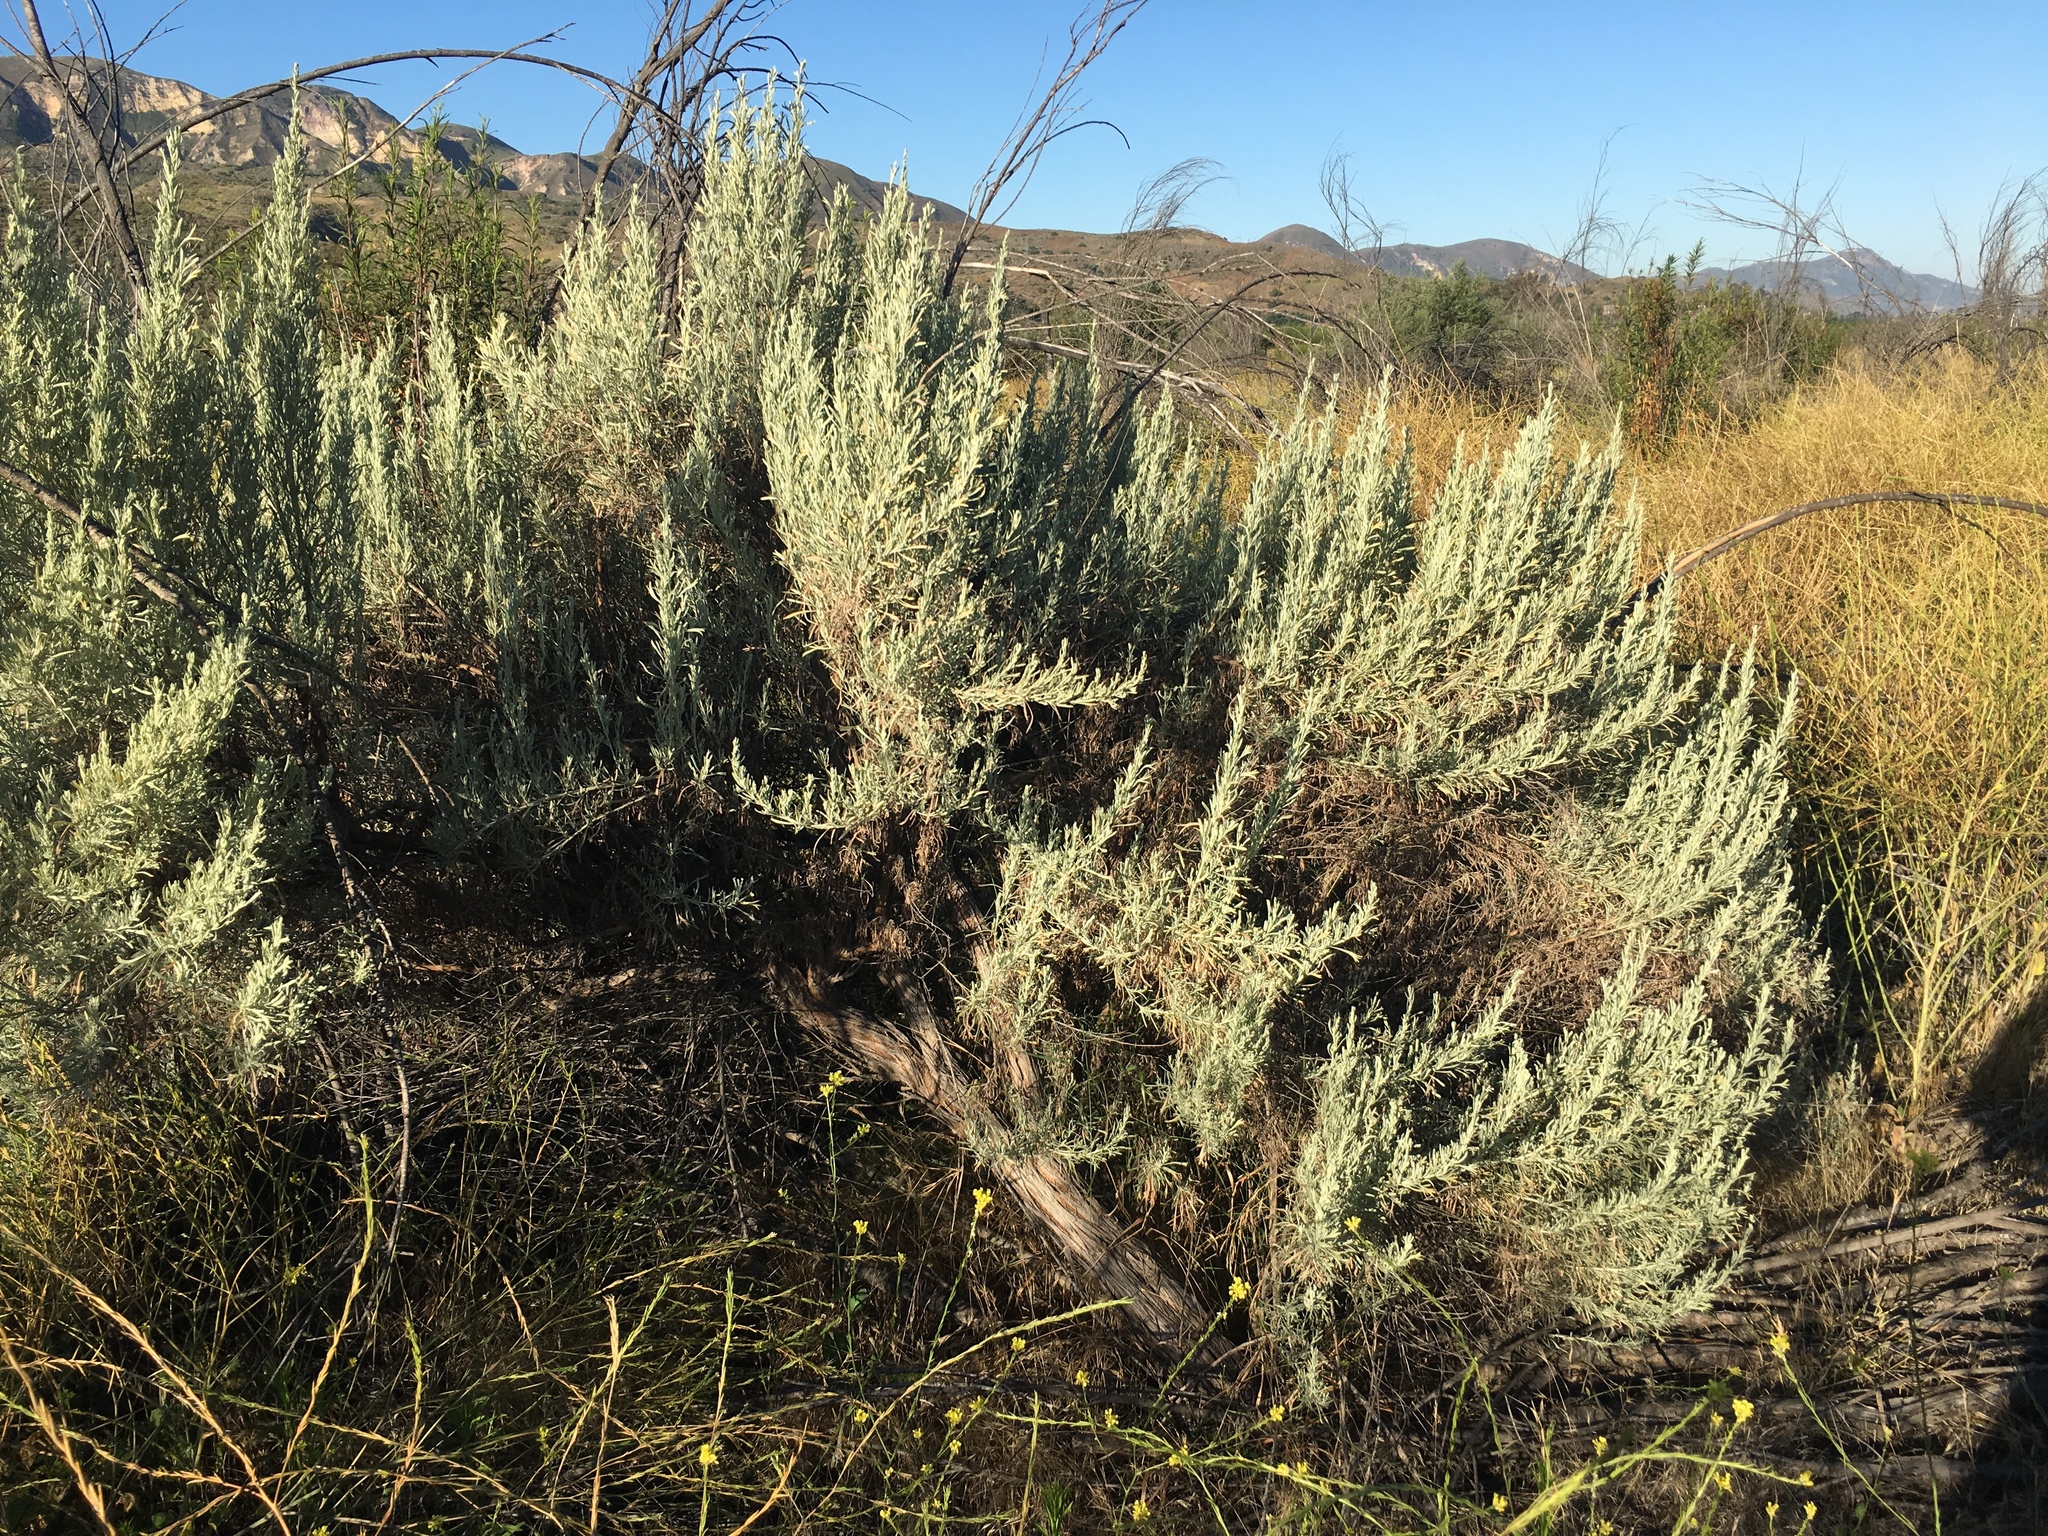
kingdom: Plantae
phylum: Tracheophyta
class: Magnoliopsida
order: Asterales
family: Asteraceae
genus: Artemisia
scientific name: Artemisia tridentata
